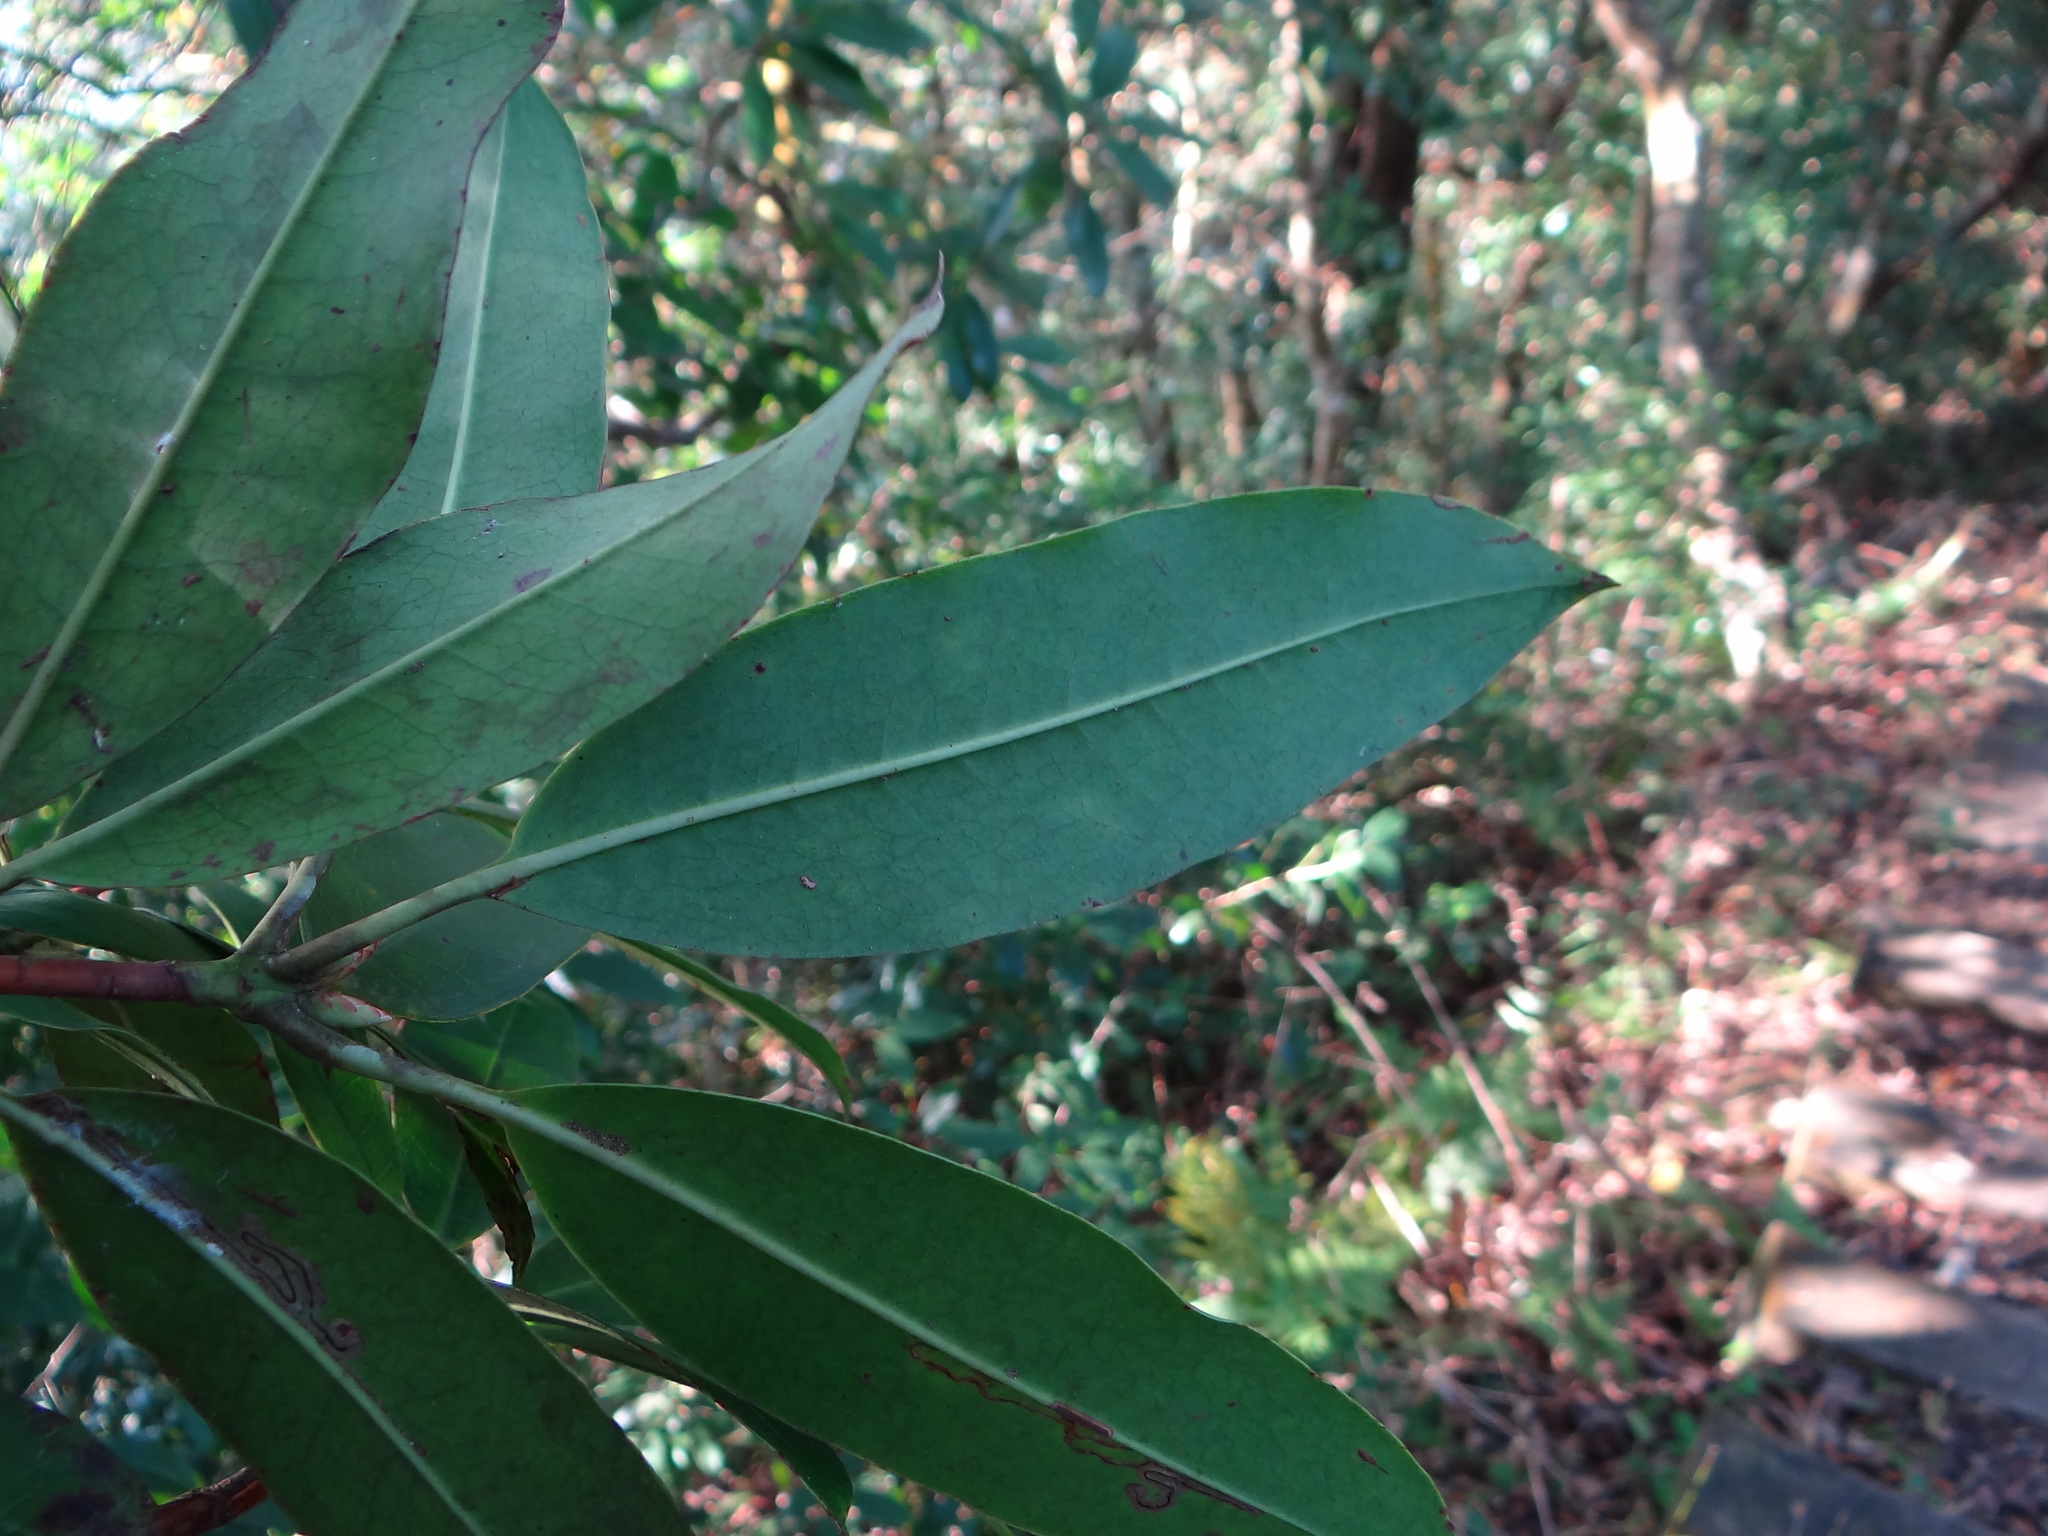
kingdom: Plantae
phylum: Tracheophyta
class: Magnoliopsida
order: Ericales
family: Ericaceae
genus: Rhododendron
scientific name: Rhododendron latoucheae
